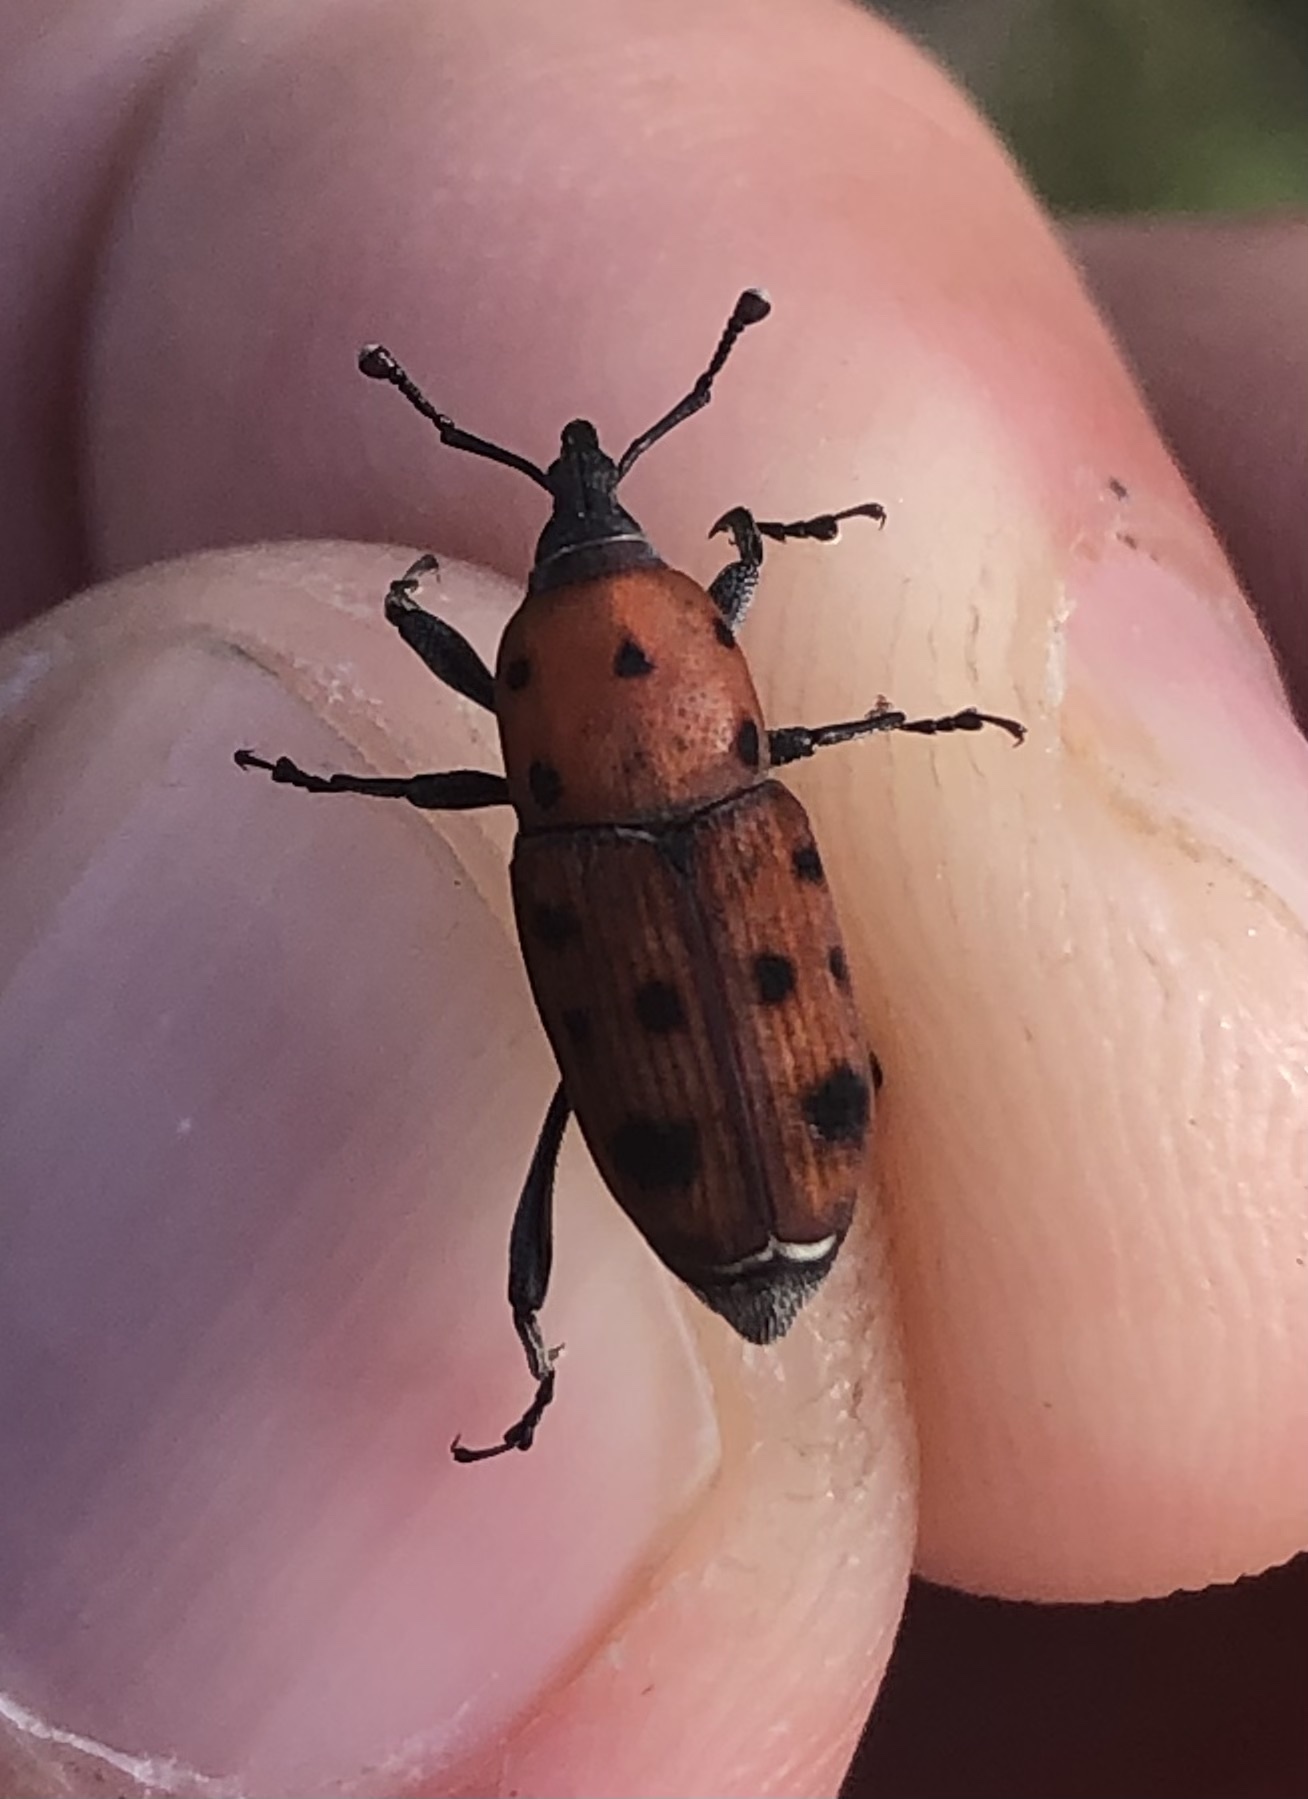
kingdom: Animalia
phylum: Arthropoda
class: Insecta
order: Coleoptera
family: Dryophthoridae
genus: Rhodobaenus
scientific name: Rhodobaenus tredecimpunctatus
